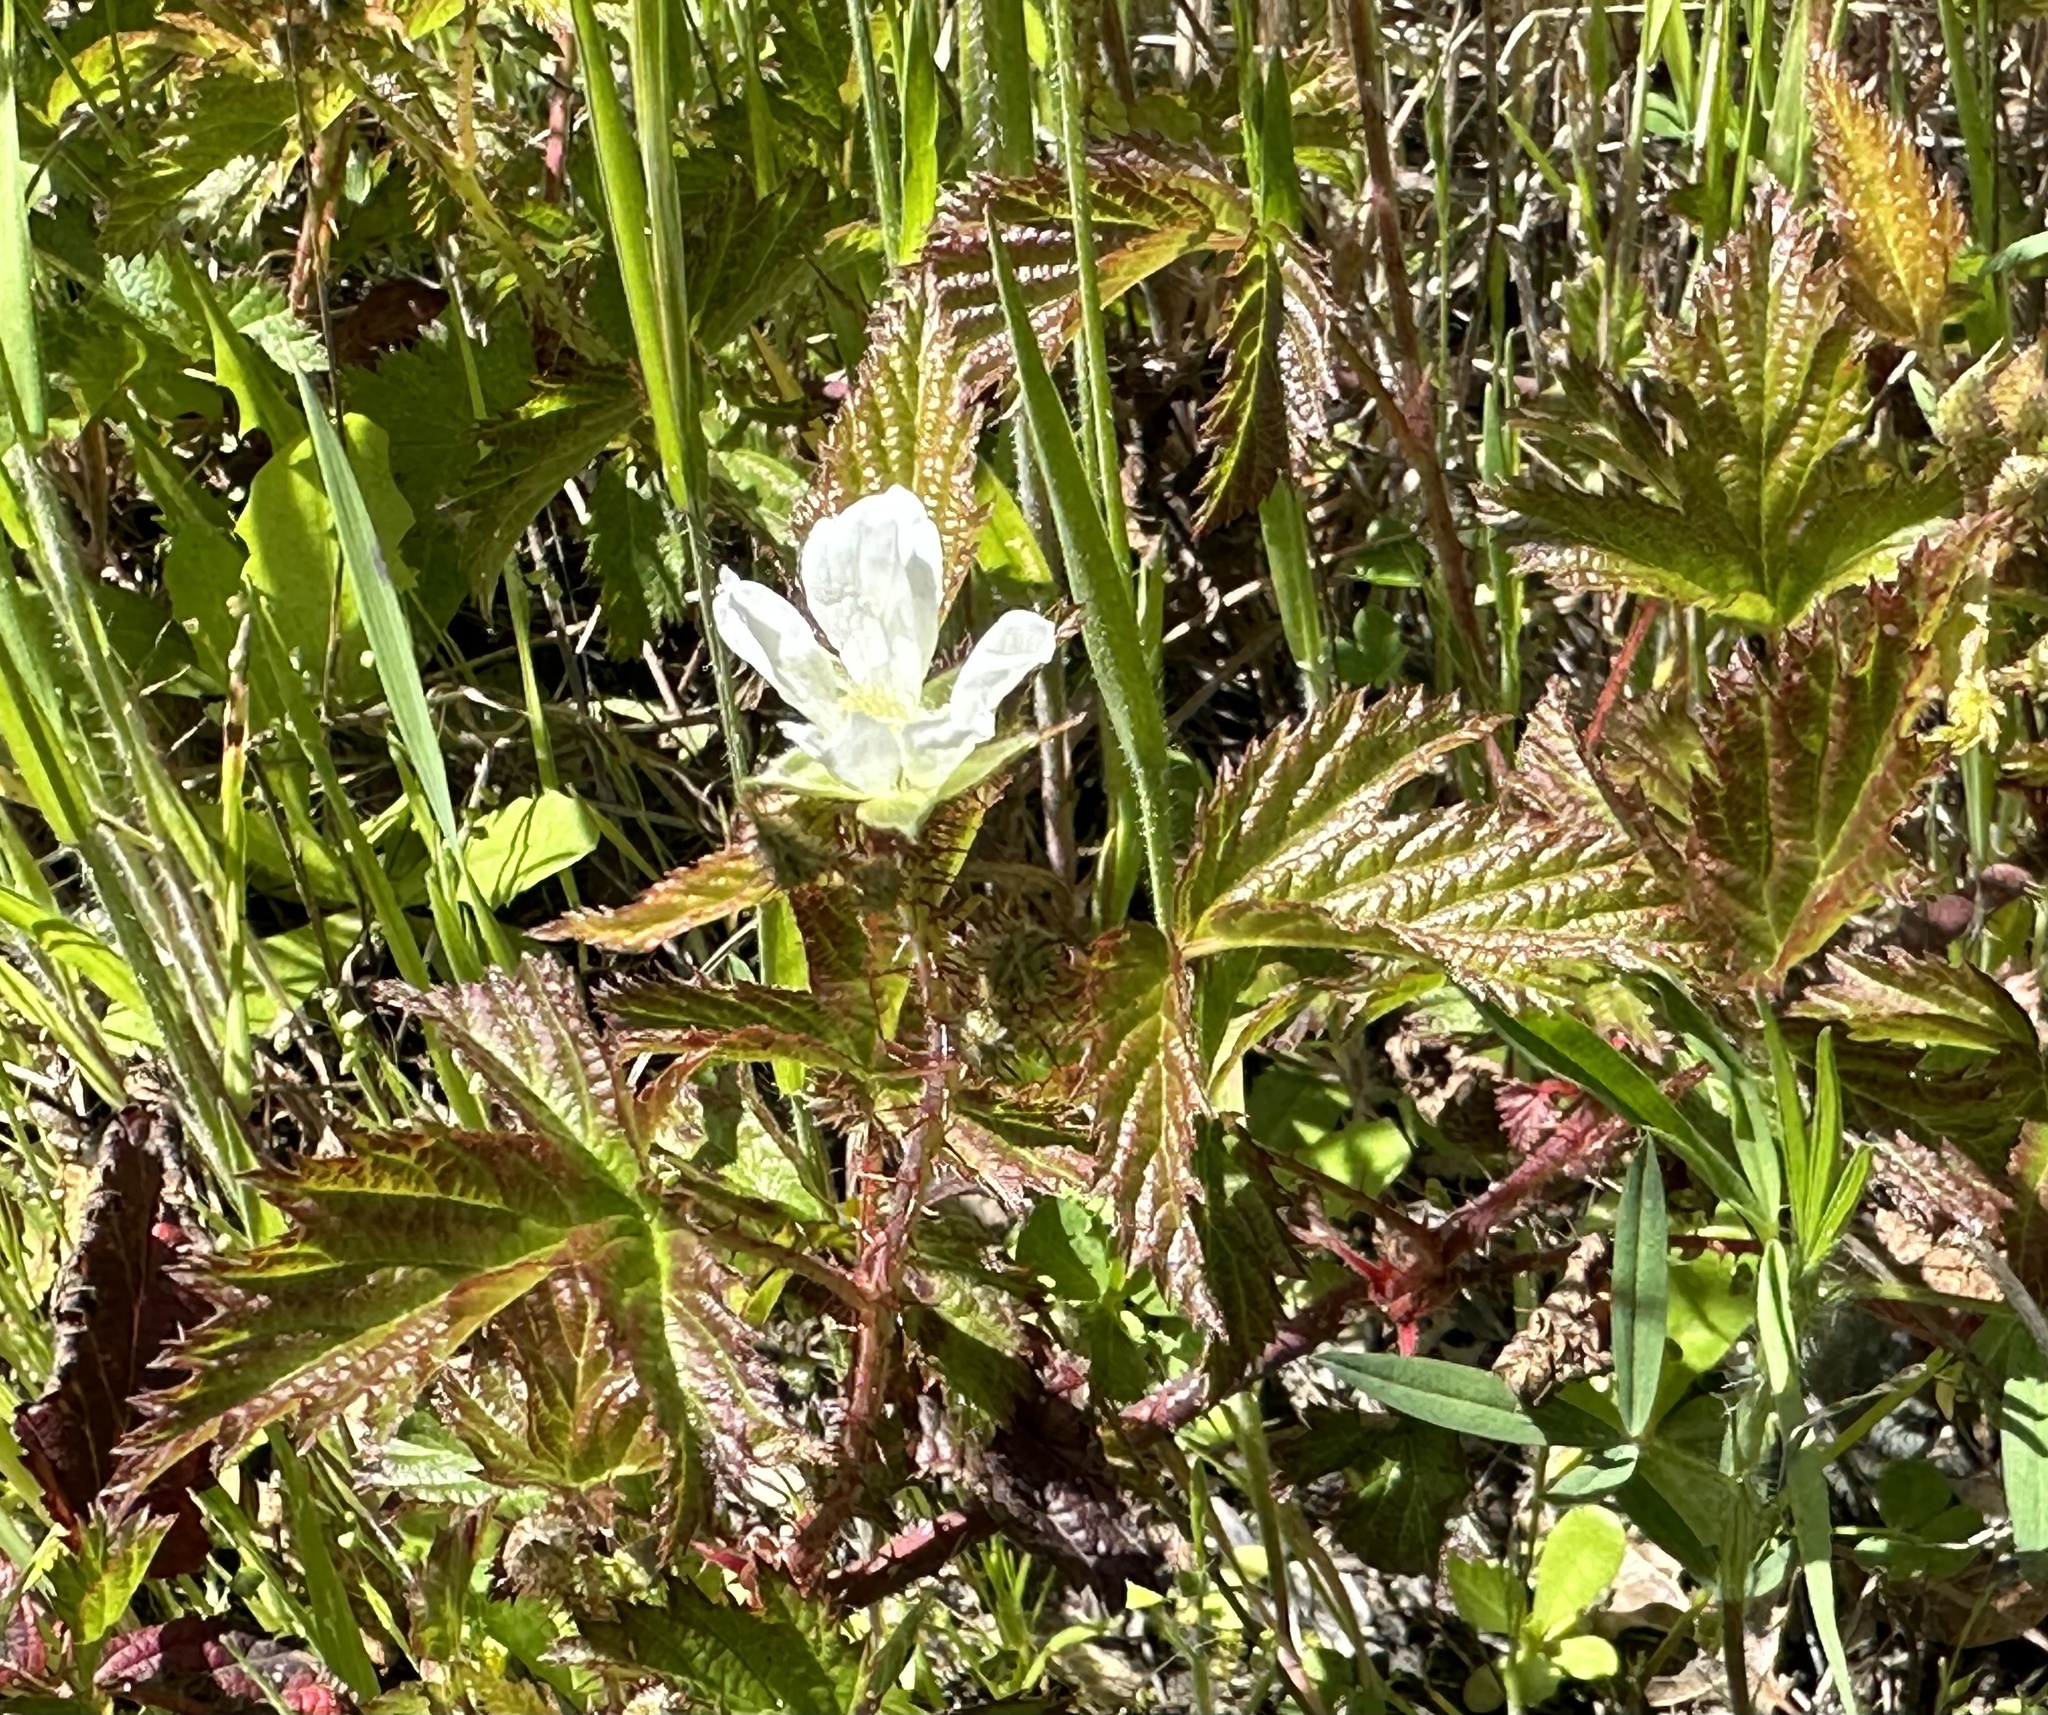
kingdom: Plantae
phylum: Tracheophyta
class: Magnoliopsida
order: Rosales
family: Rosaceae
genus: Rubus
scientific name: Rubus ursinus
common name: Pacific blackberry
